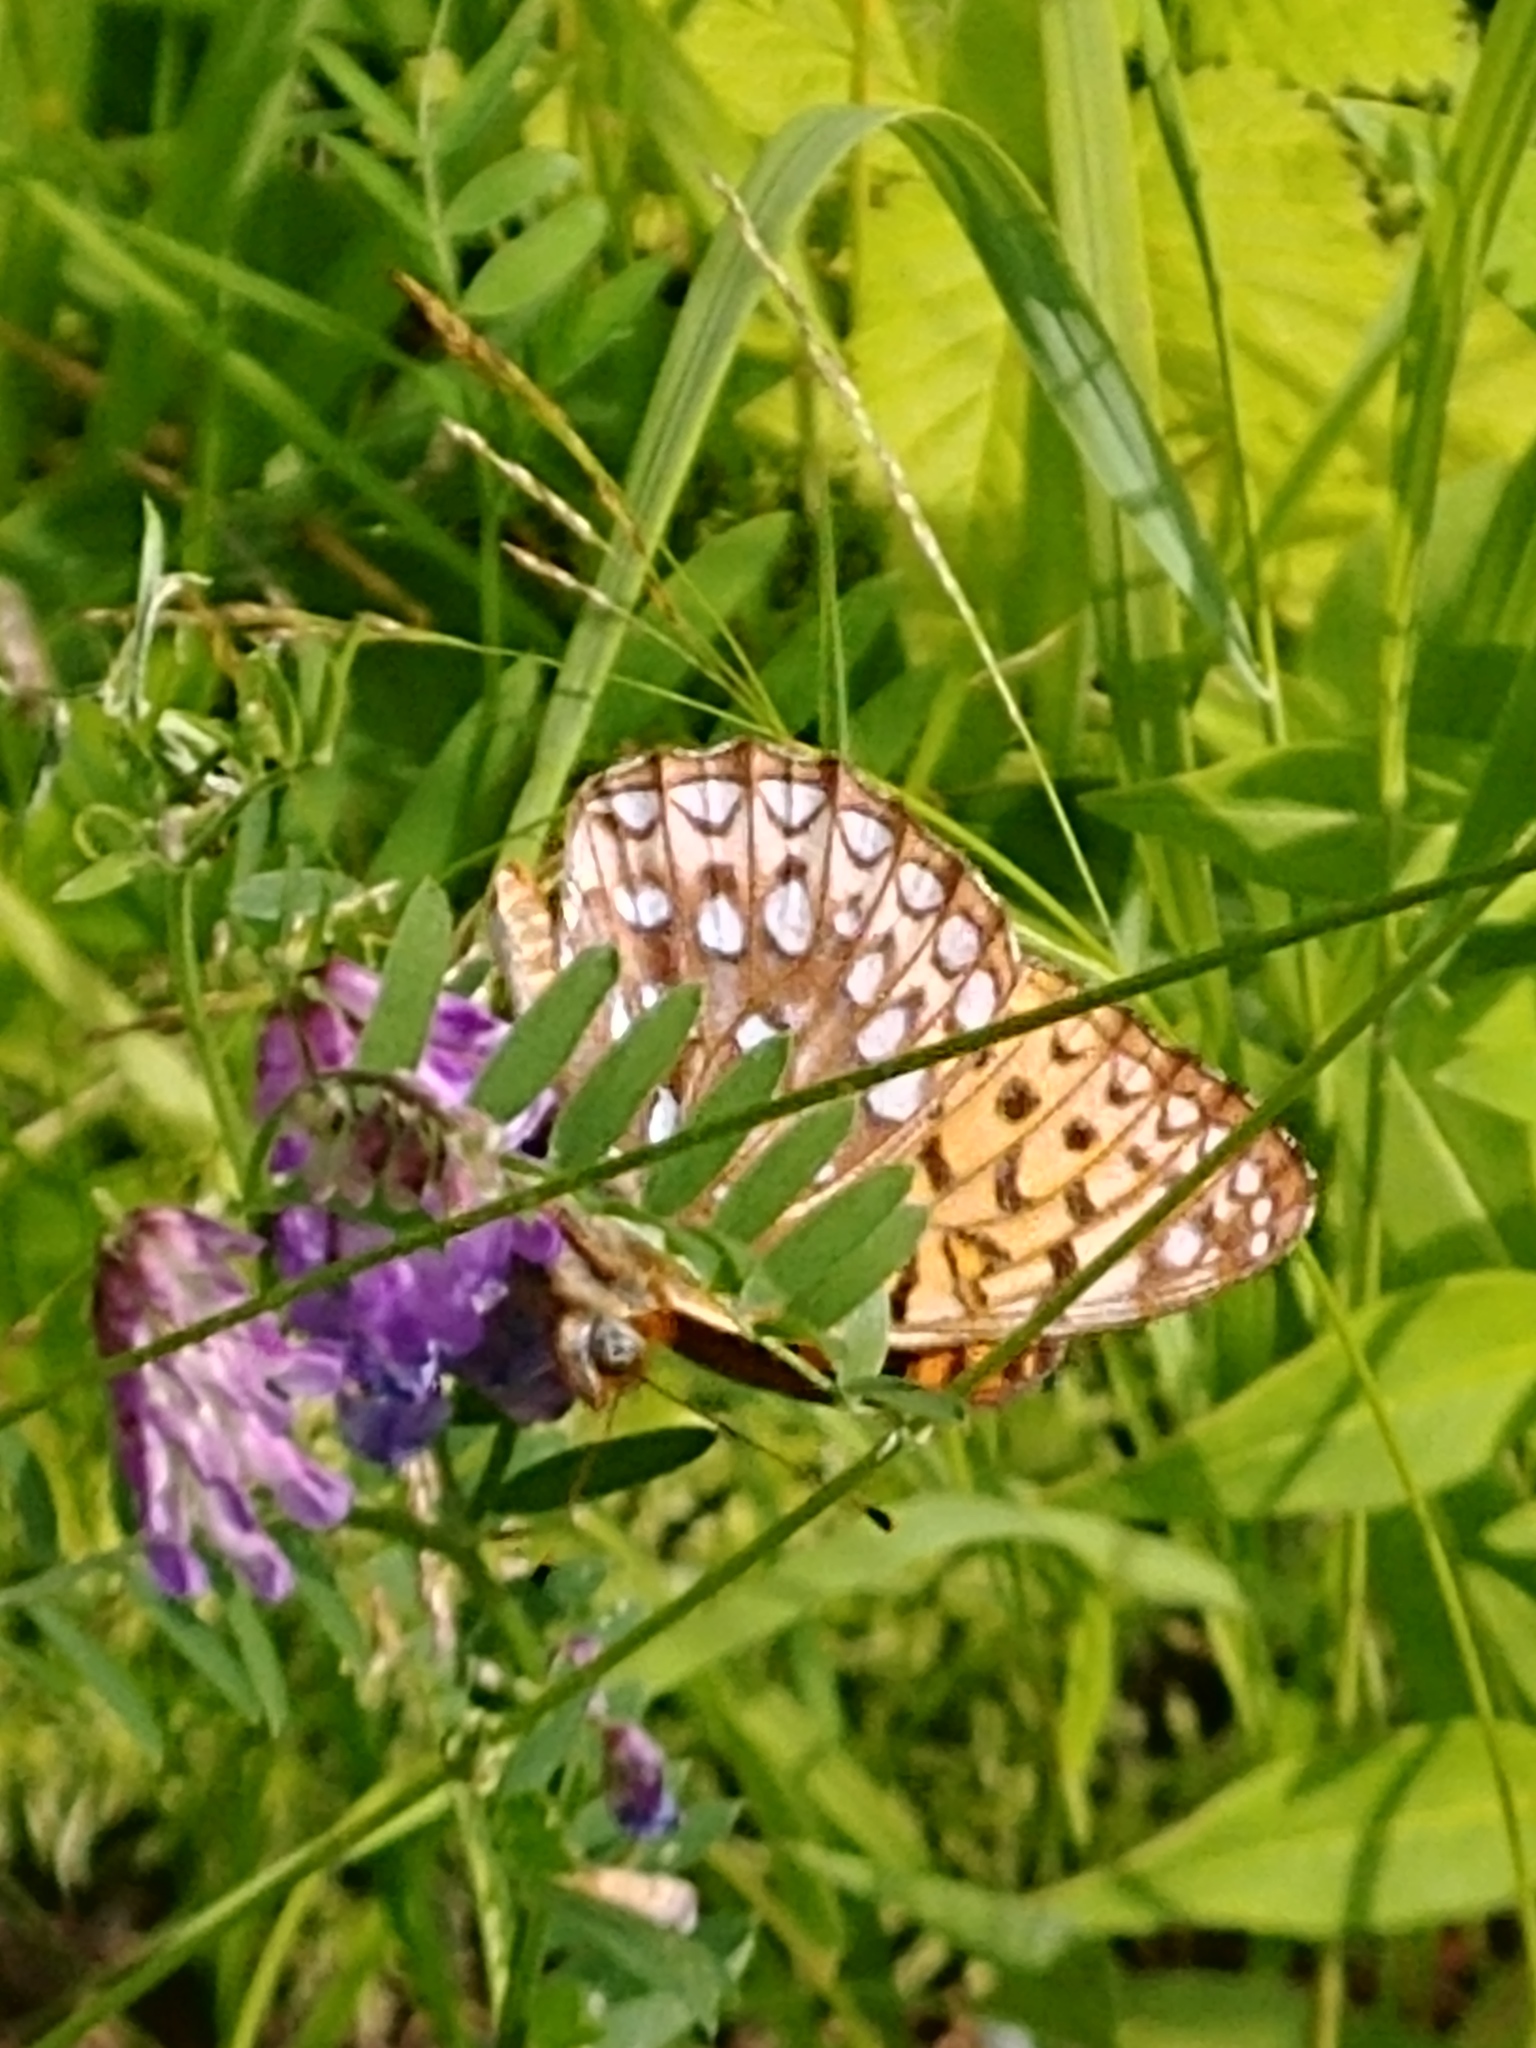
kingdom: Animalia
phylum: Arthropoda
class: Insecta
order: Lepidoptera
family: Nymphalidae
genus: Speyeria
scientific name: Speyeria atlantis
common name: Atlantis fritillary
